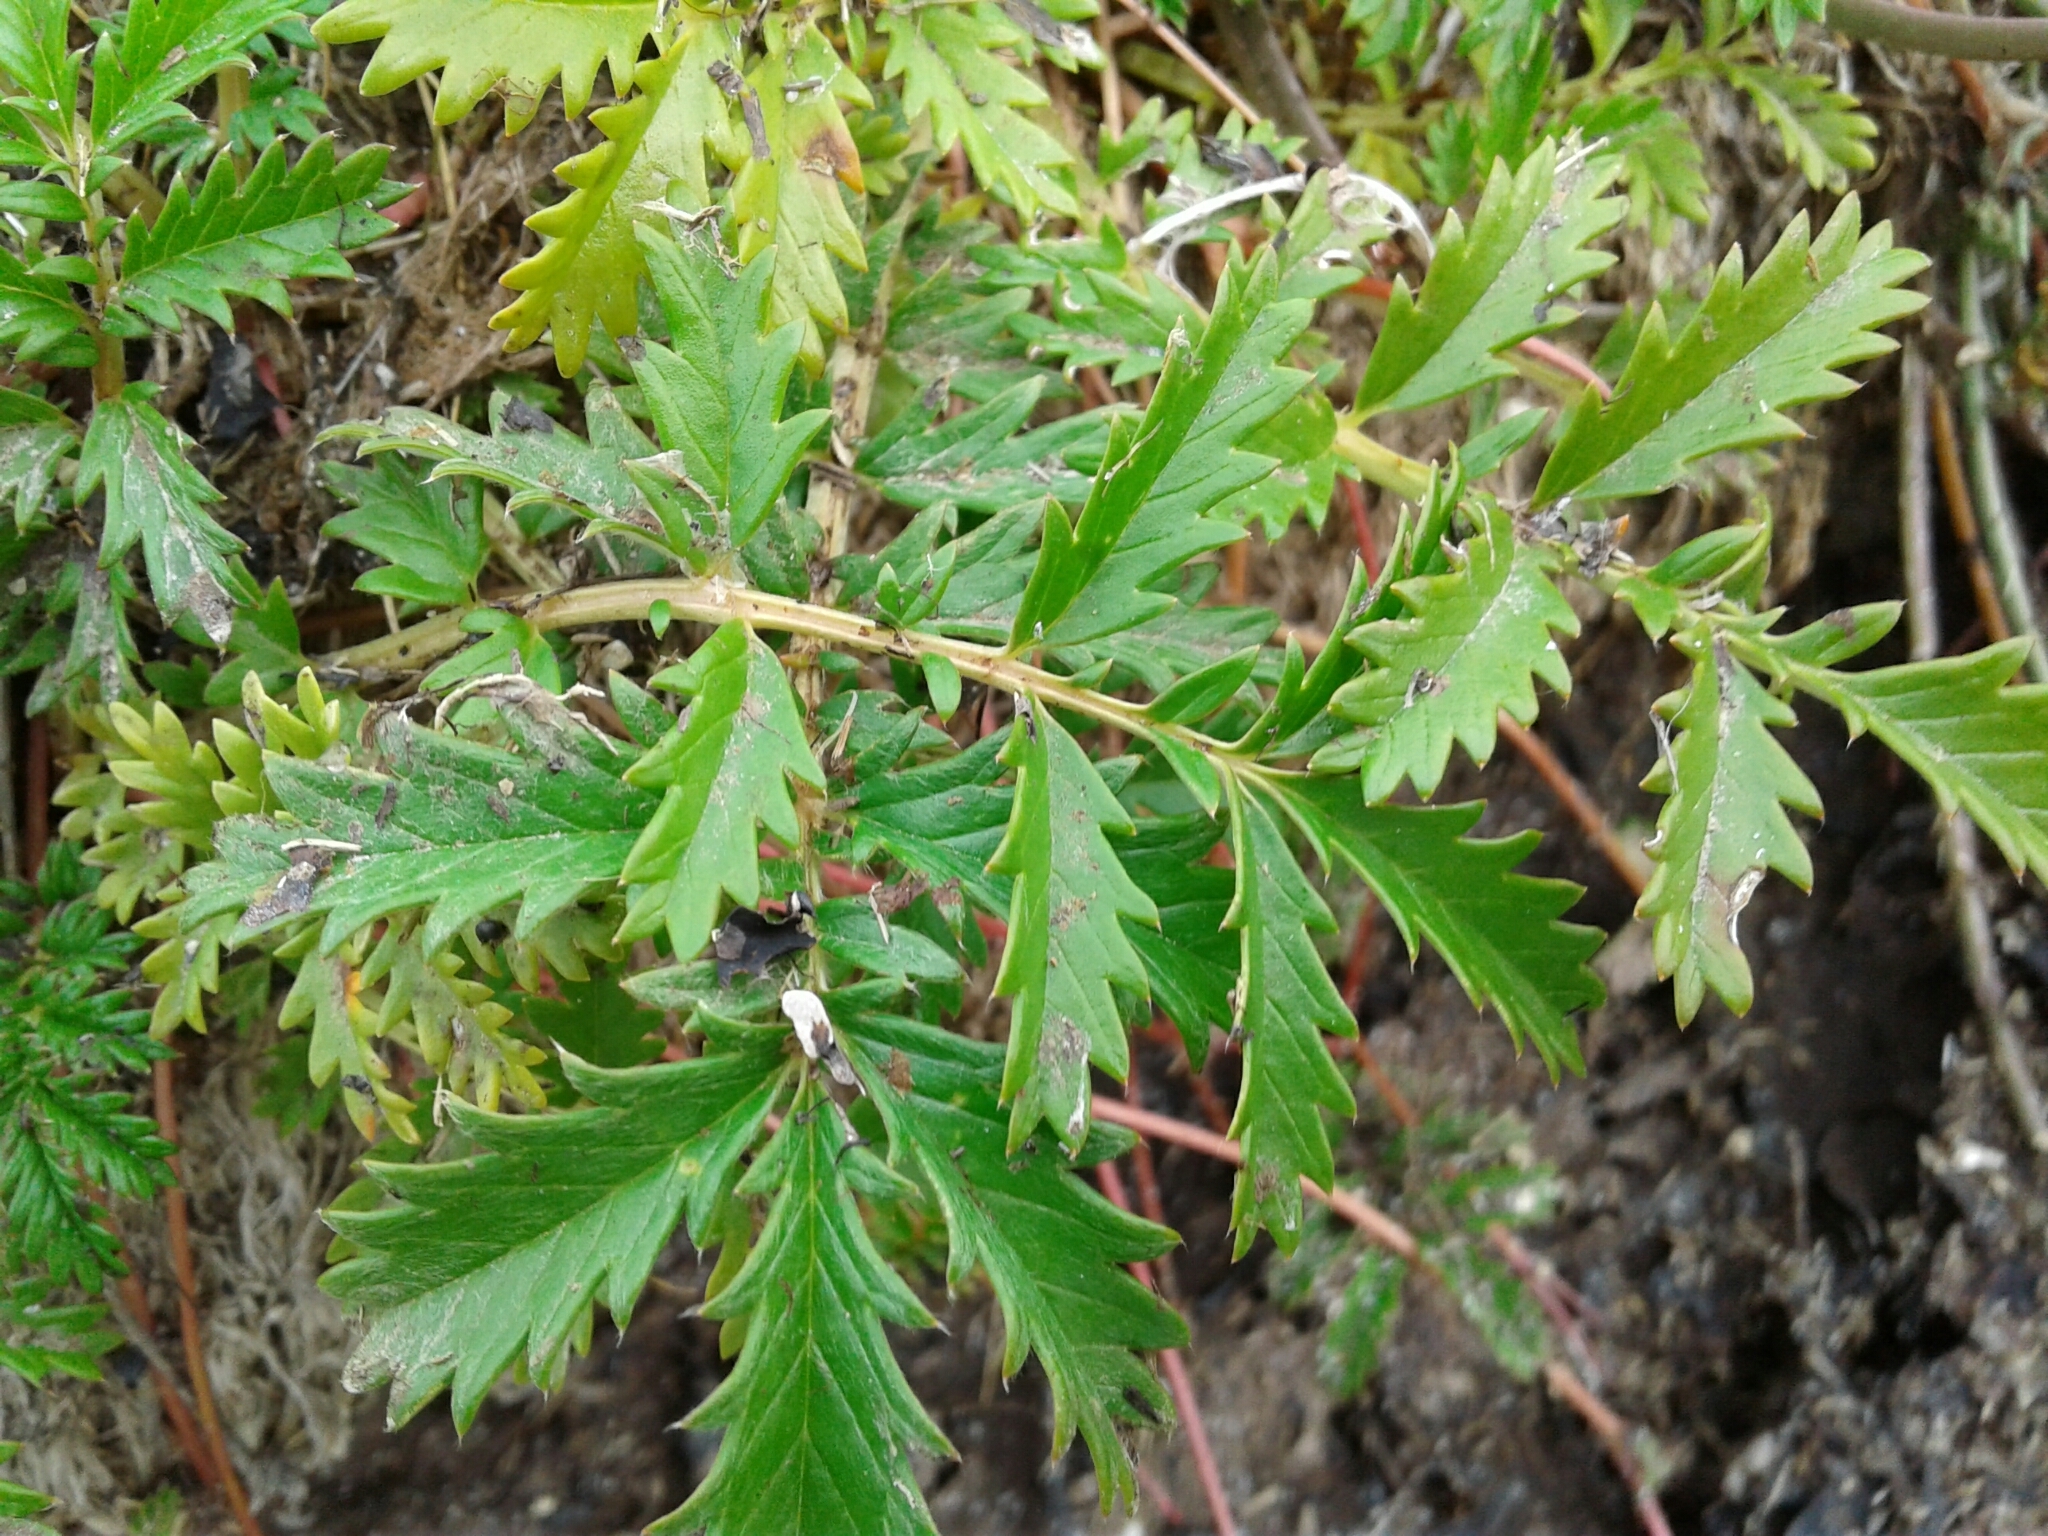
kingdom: Plantae
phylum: Tracheophyta
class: Magnoliopsida
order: Rosales
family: Rosaceae
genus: Argentina
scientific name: Argentina anserina
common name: Common silverweed
